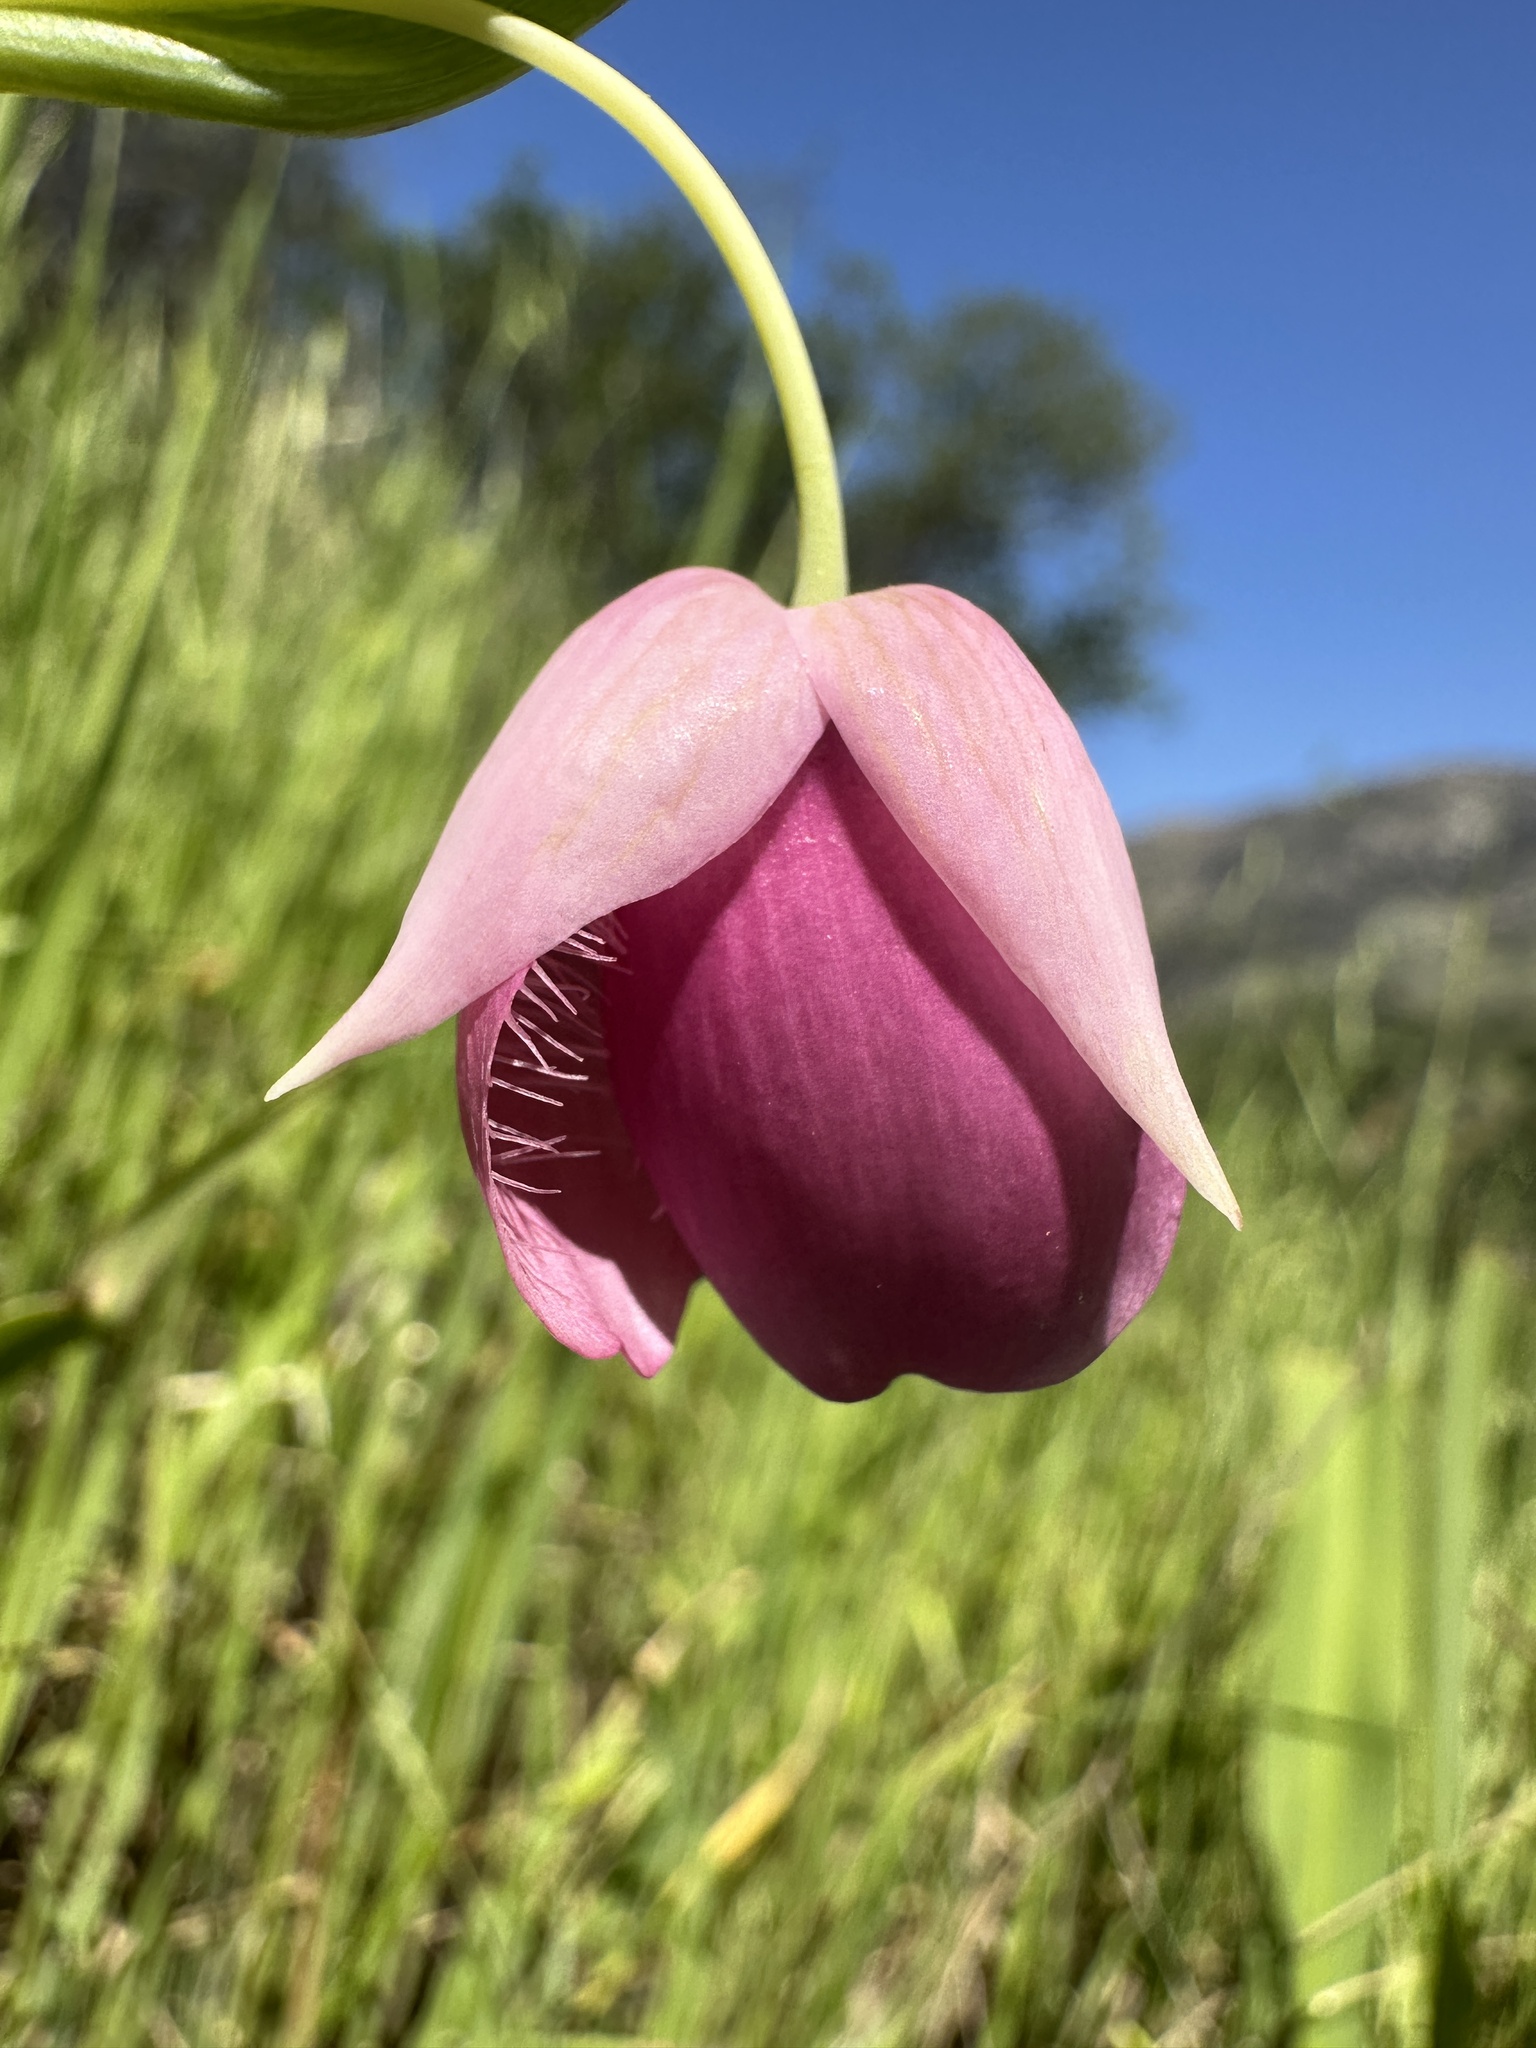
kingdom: Plantae
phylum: Tracheophyta
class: Liliopsida
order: Liliales
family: Liliaceae
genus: Calochortus
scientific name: Calochortus amoenus
